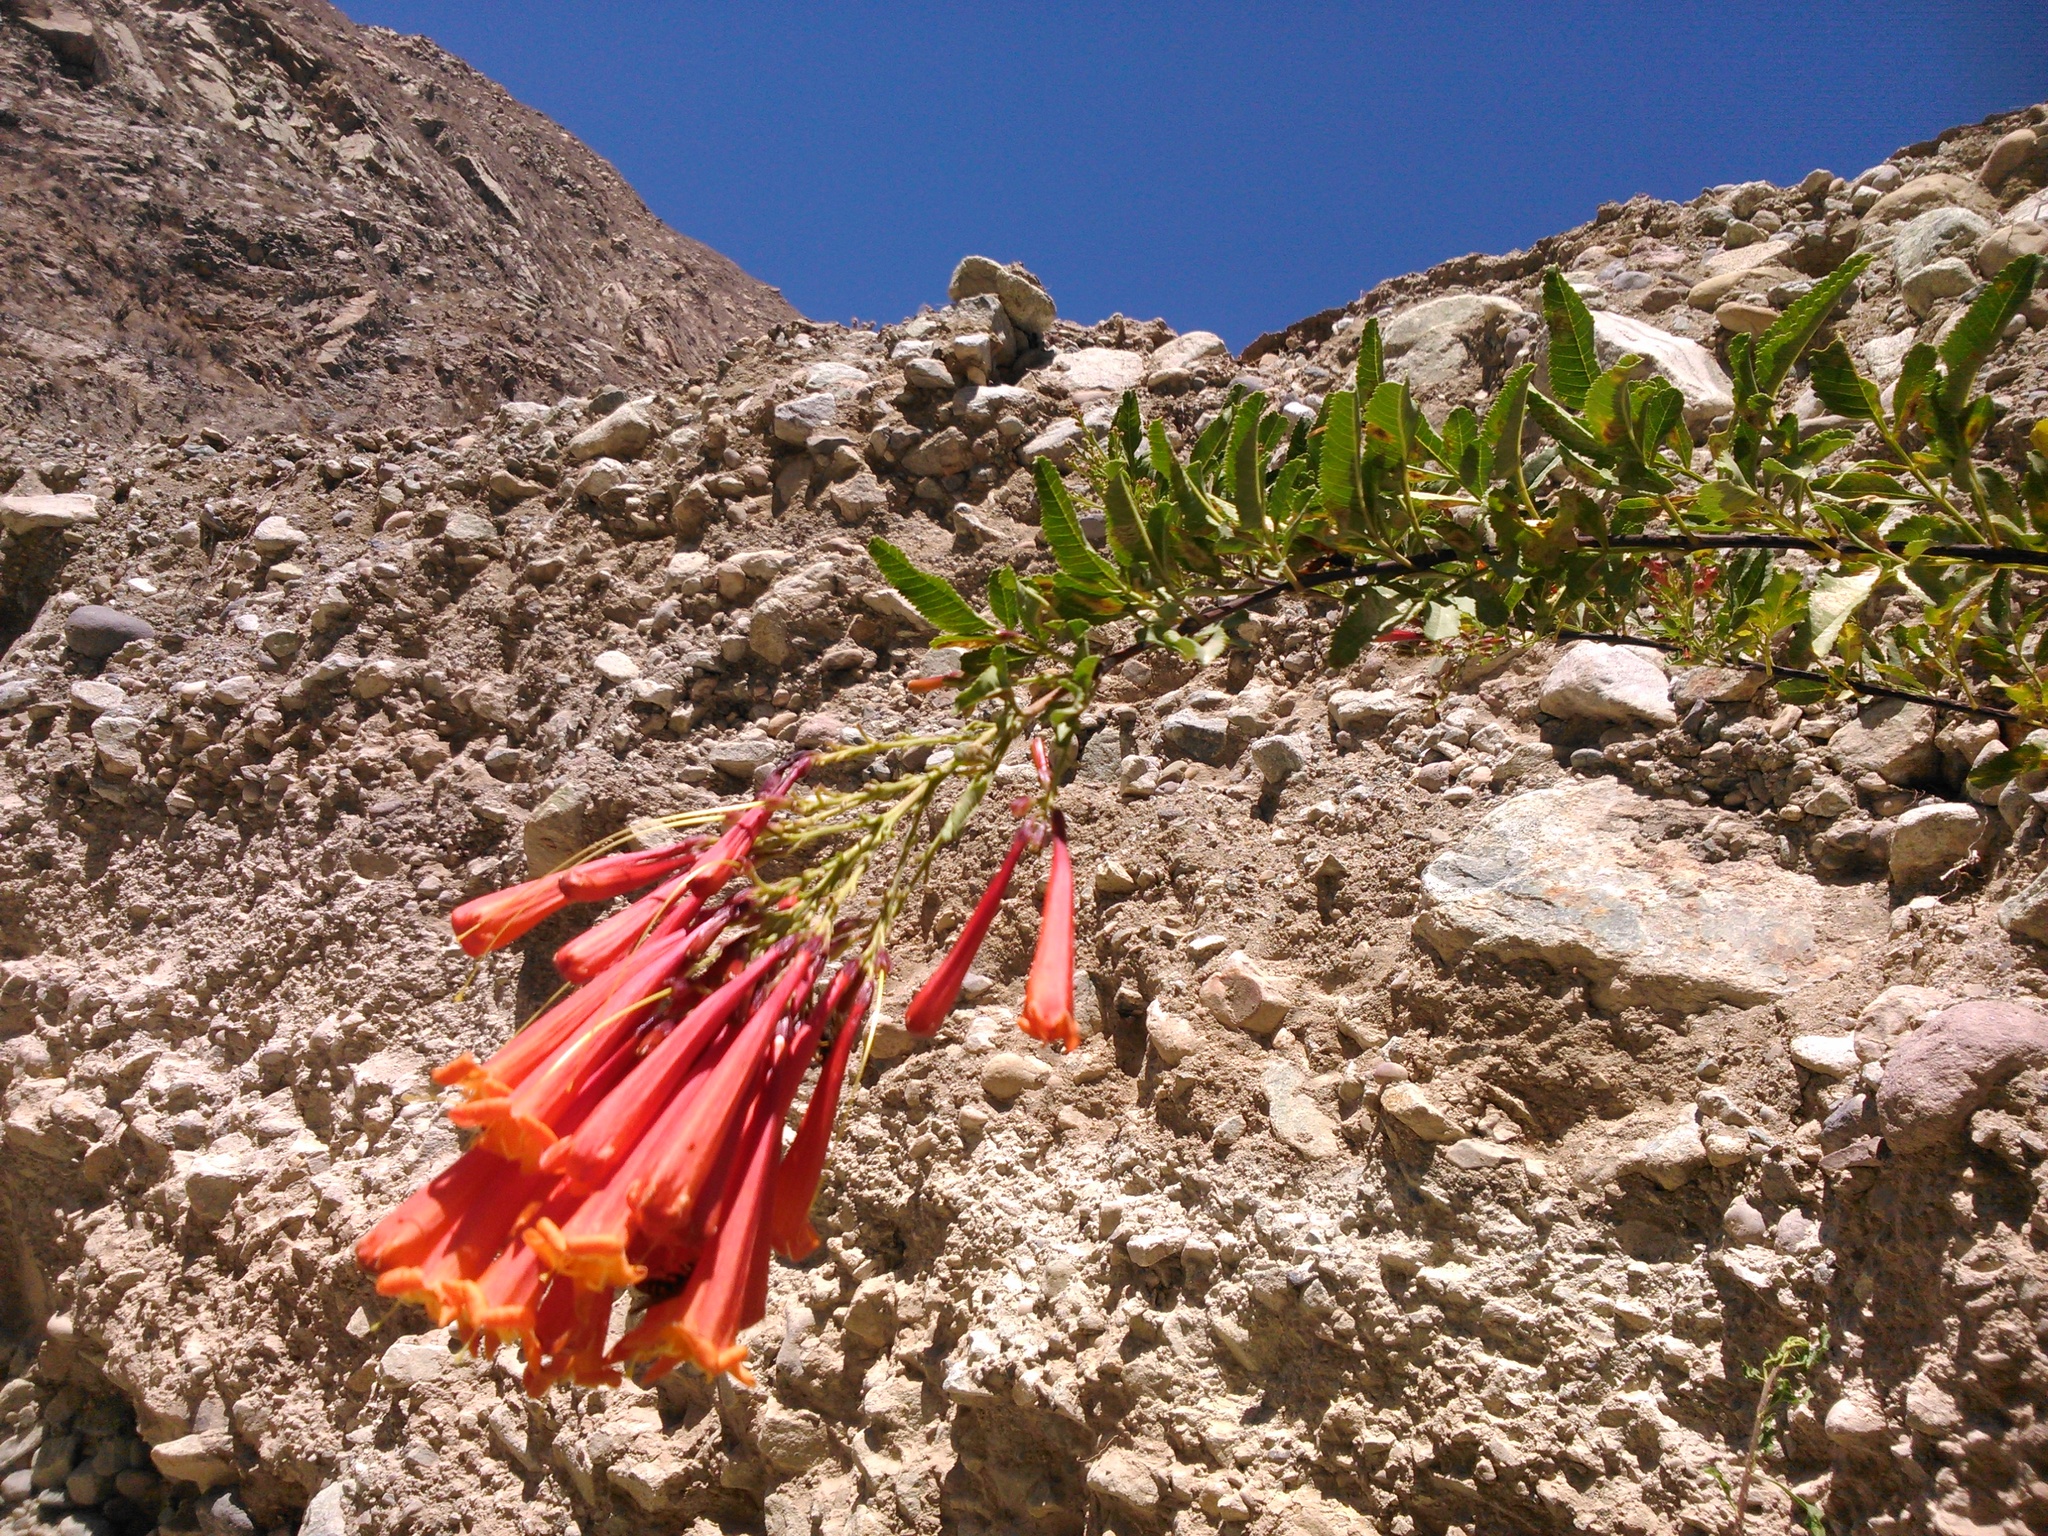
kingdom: Plantae
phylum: Tracheophyta
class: Magnoliopsida
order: Lamiales
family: Bignoniaceae
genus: Tecoma
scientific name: Tecoma fulva
